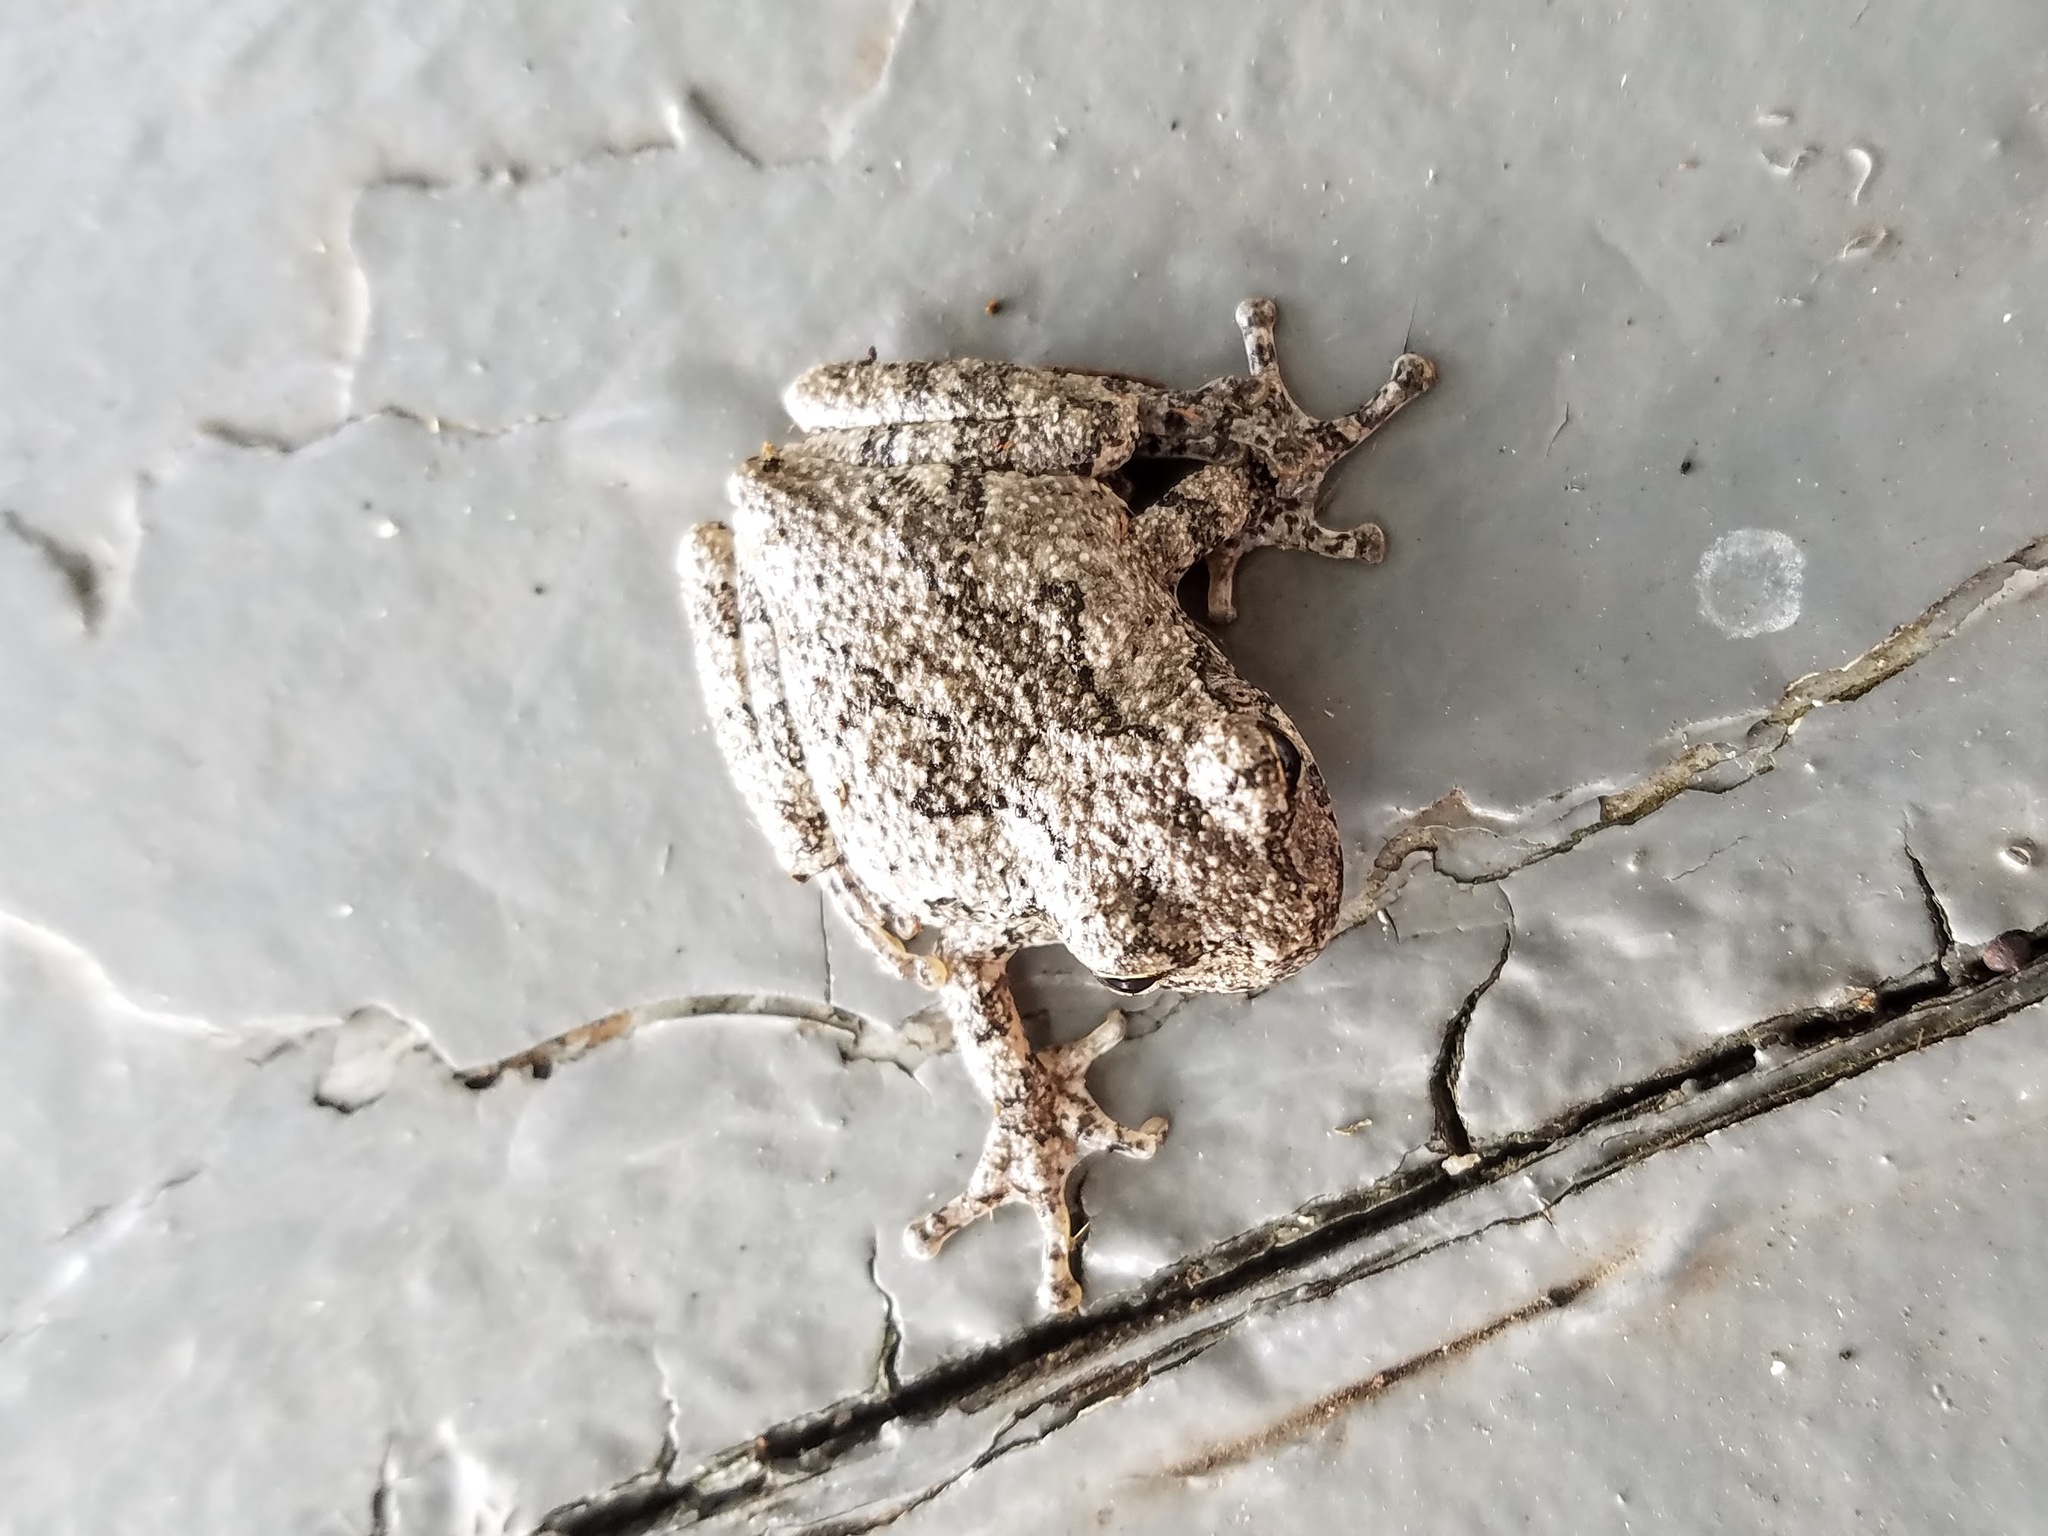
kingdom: Animalia
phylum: Chordata
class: Amphibia
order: Anura
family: Hylidae
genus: Dryophytes
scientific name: Dryophytes chrysoscelis
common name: Cope's gray treefrog
